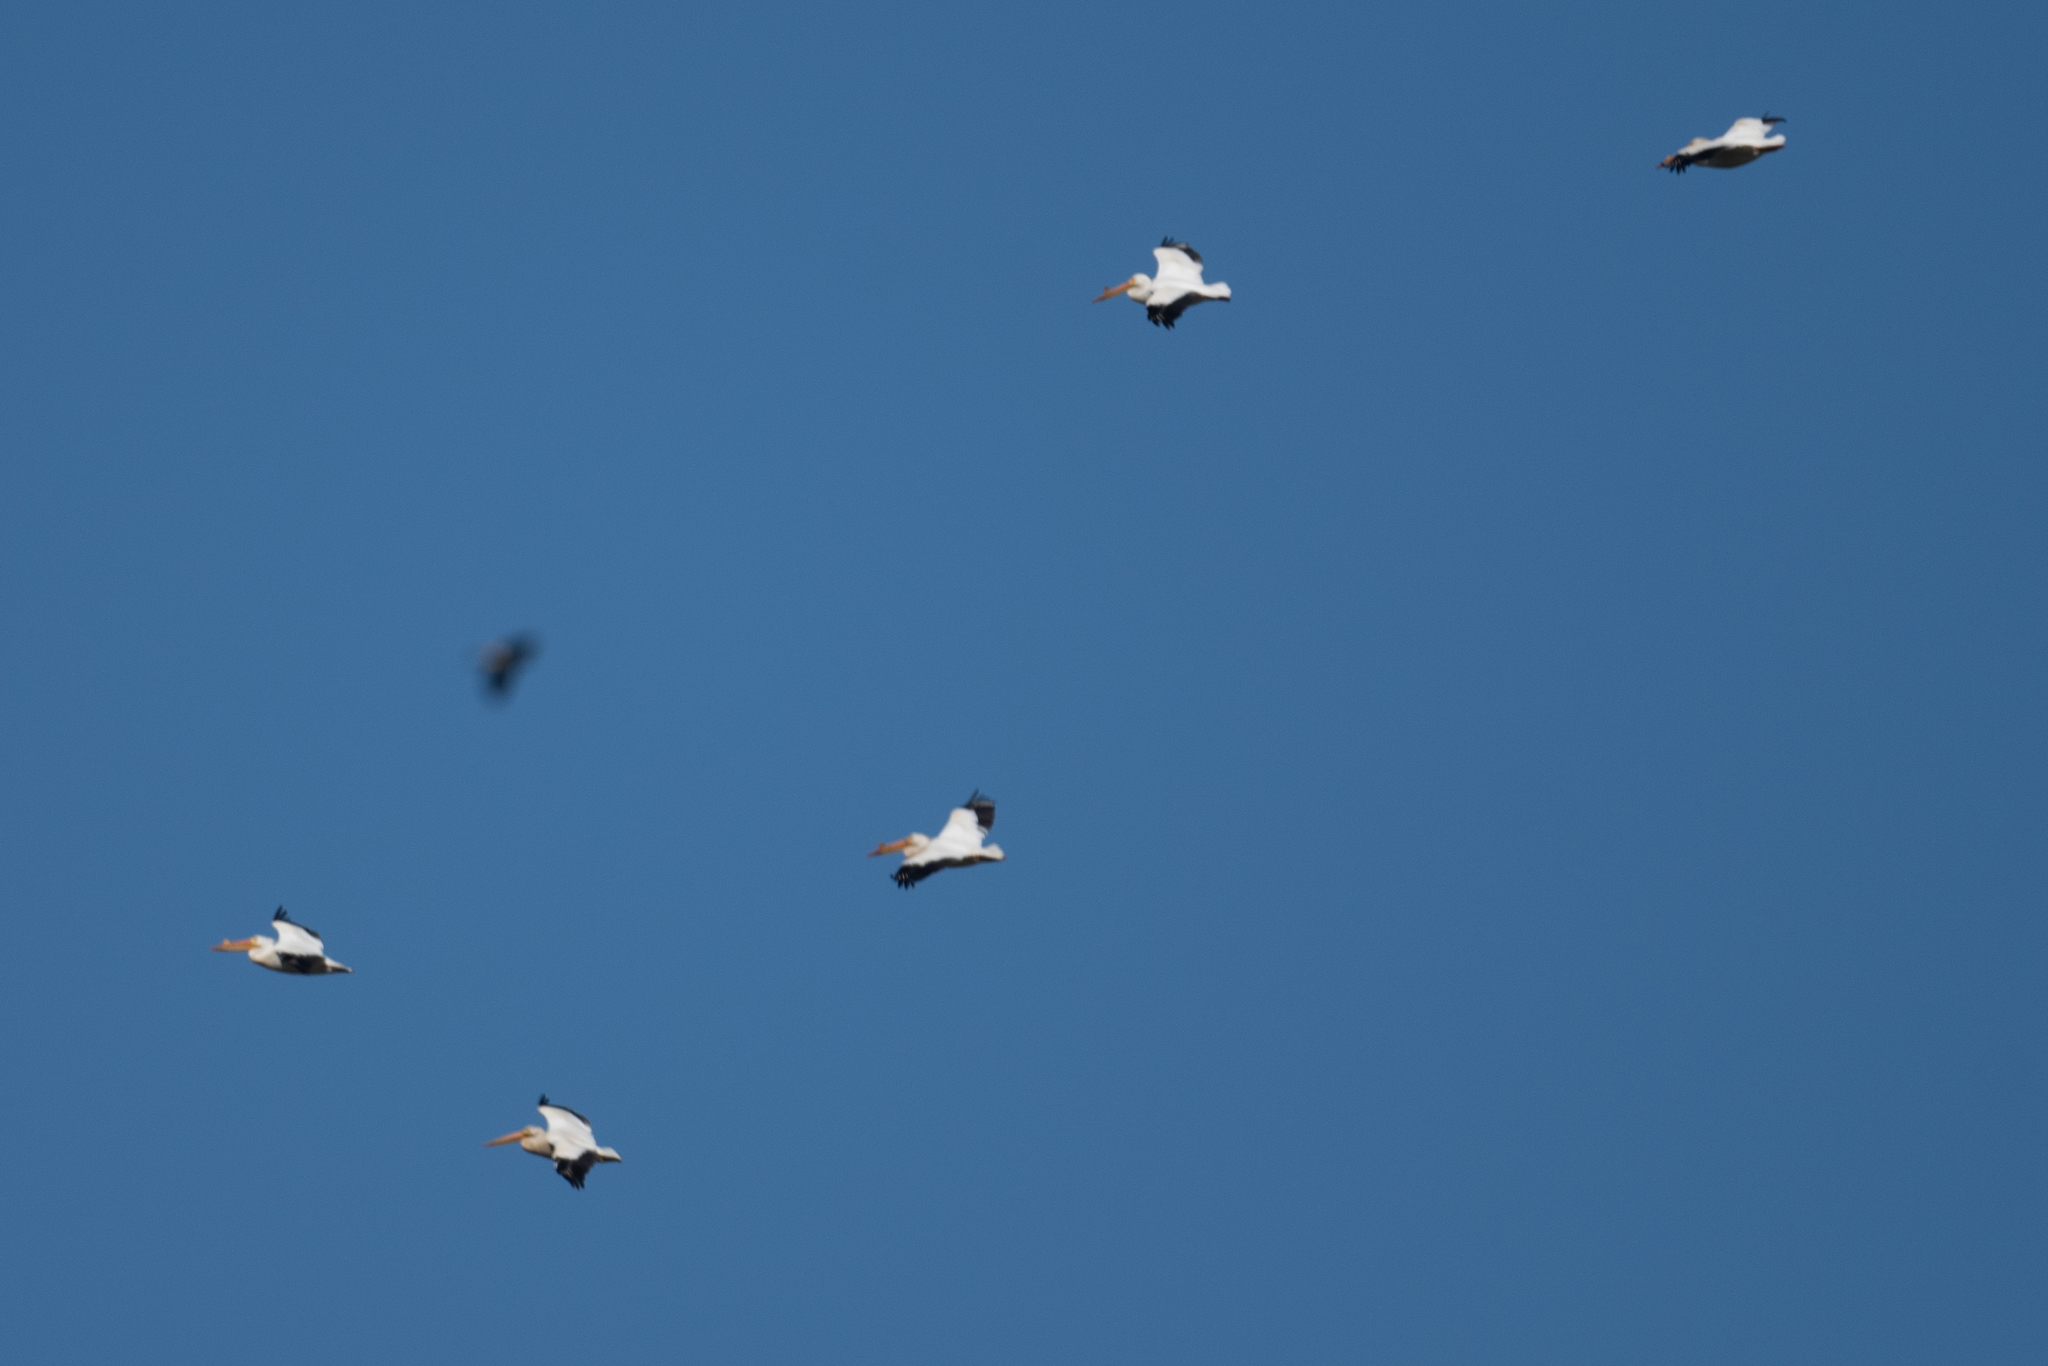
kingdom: Animalia
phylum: Chordata
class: Aves
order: Pelecaniformes
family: Pelecanidae
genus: Pelecanus
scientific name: Pelecanus erythrorhynchos
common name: American white pelican
